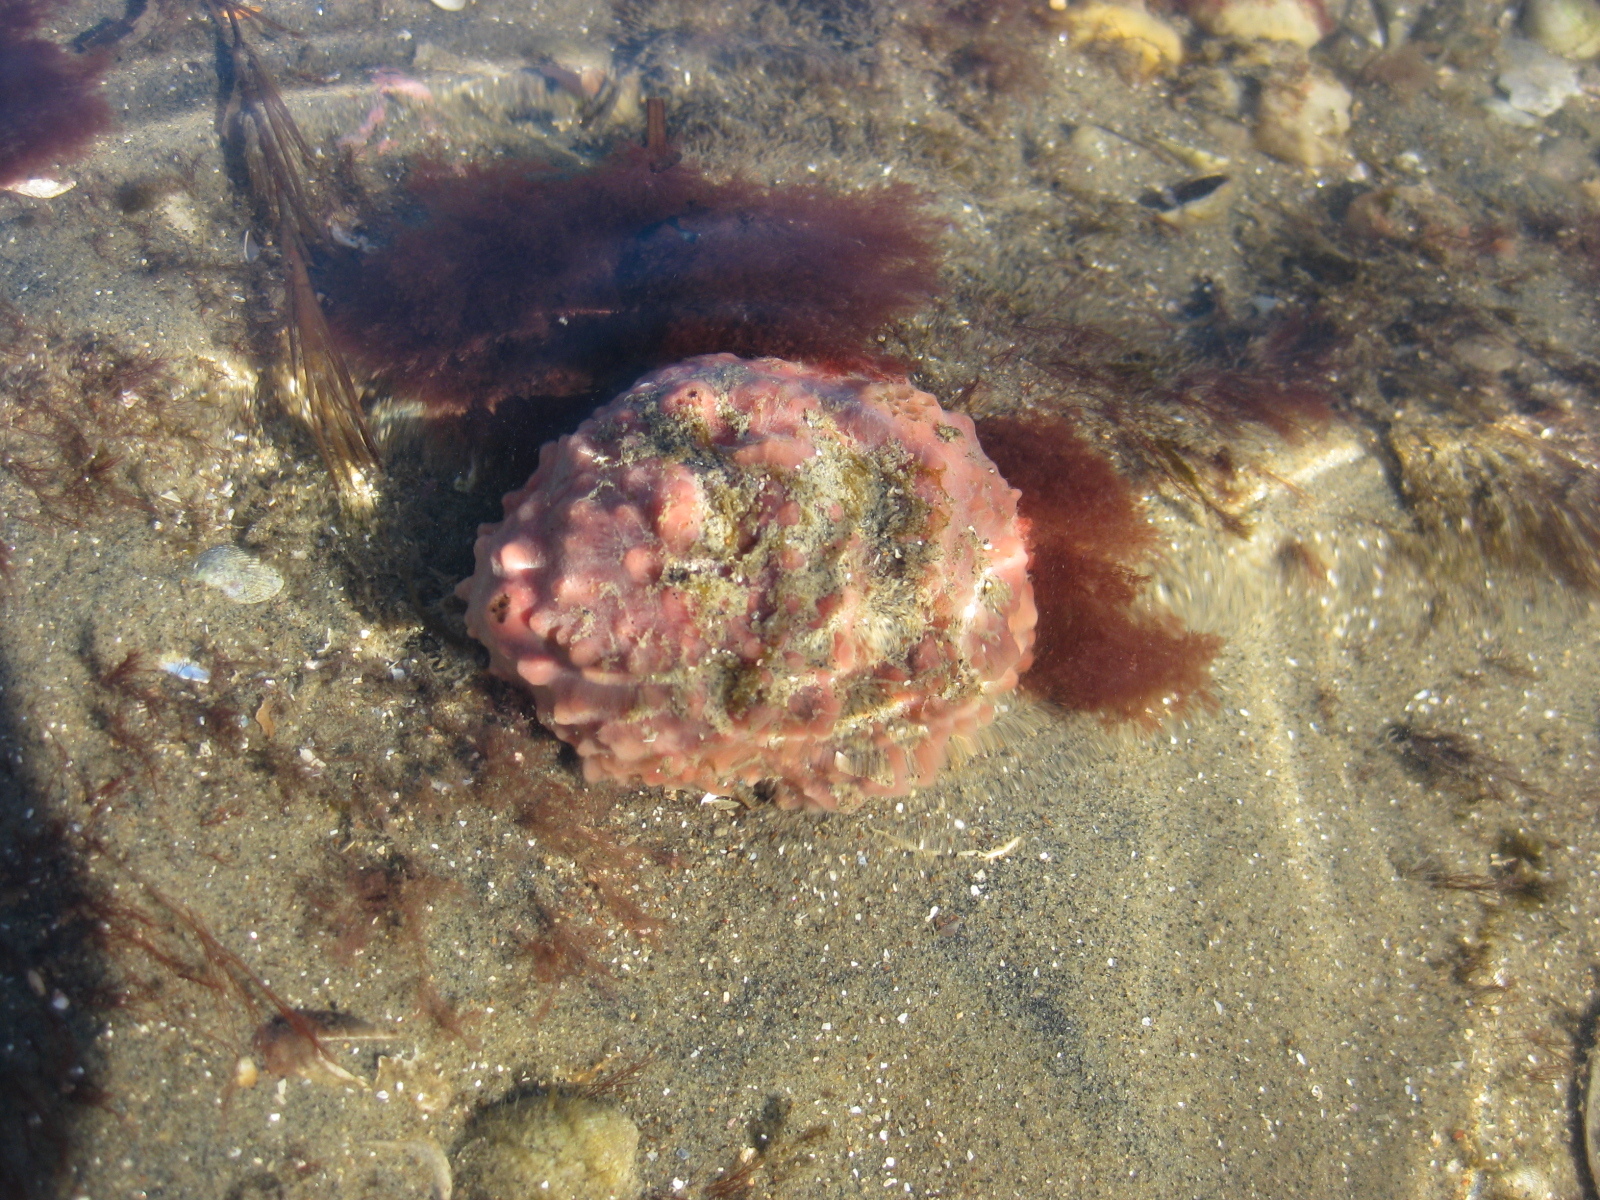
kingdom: Animalia
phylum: Porifera
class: Demospongiae
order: Tethyida
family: Tethyidae
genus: Tethya
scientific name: Tethya bergquistae
